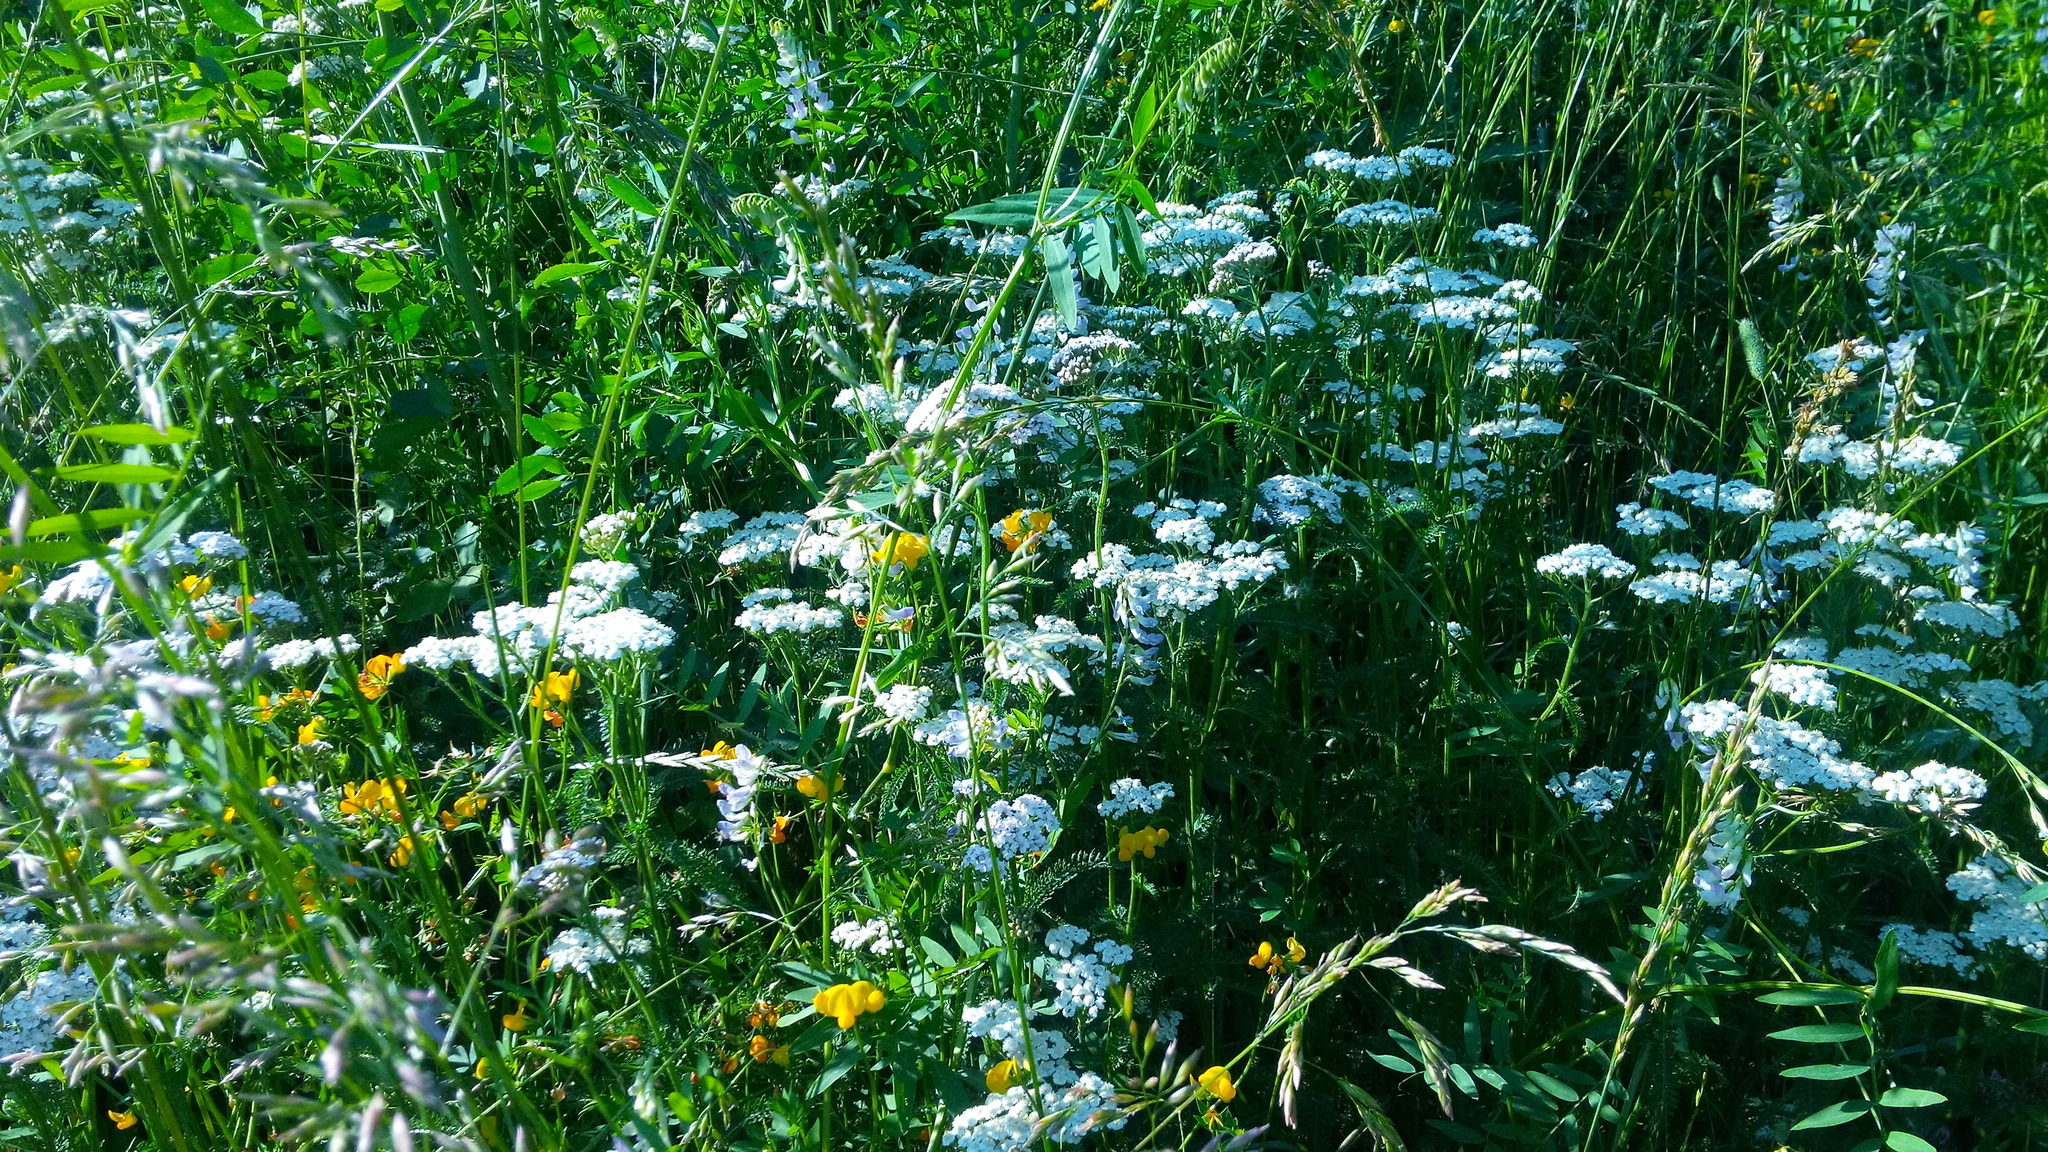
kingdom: Plantae
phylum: Tracheophyta
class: Magnoliopsida
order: Asterales
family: Asteraceae
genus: Achillea
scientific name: Achillea millefolium
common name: Yarrow
